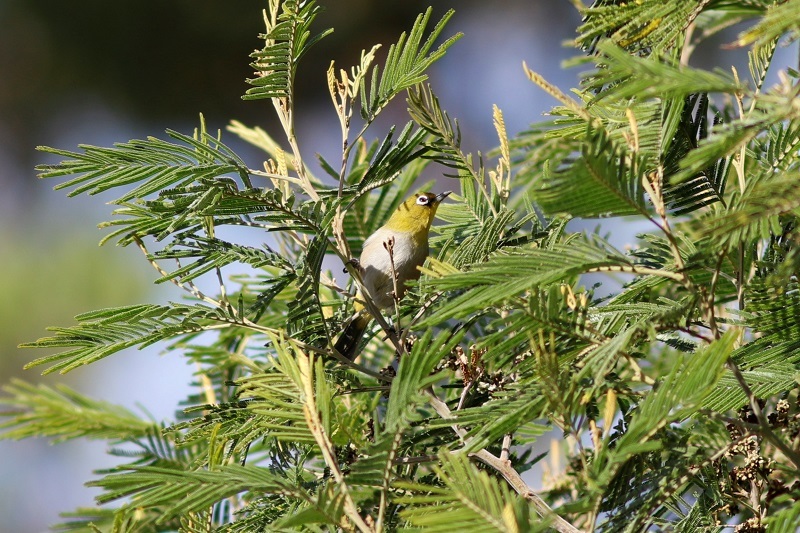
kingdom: Animalia
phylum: Chordata
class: Aves
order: Passeriformes
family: Zosteropidae
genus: Zosterops
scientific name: Zosterops virens
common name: Cape white-eye
